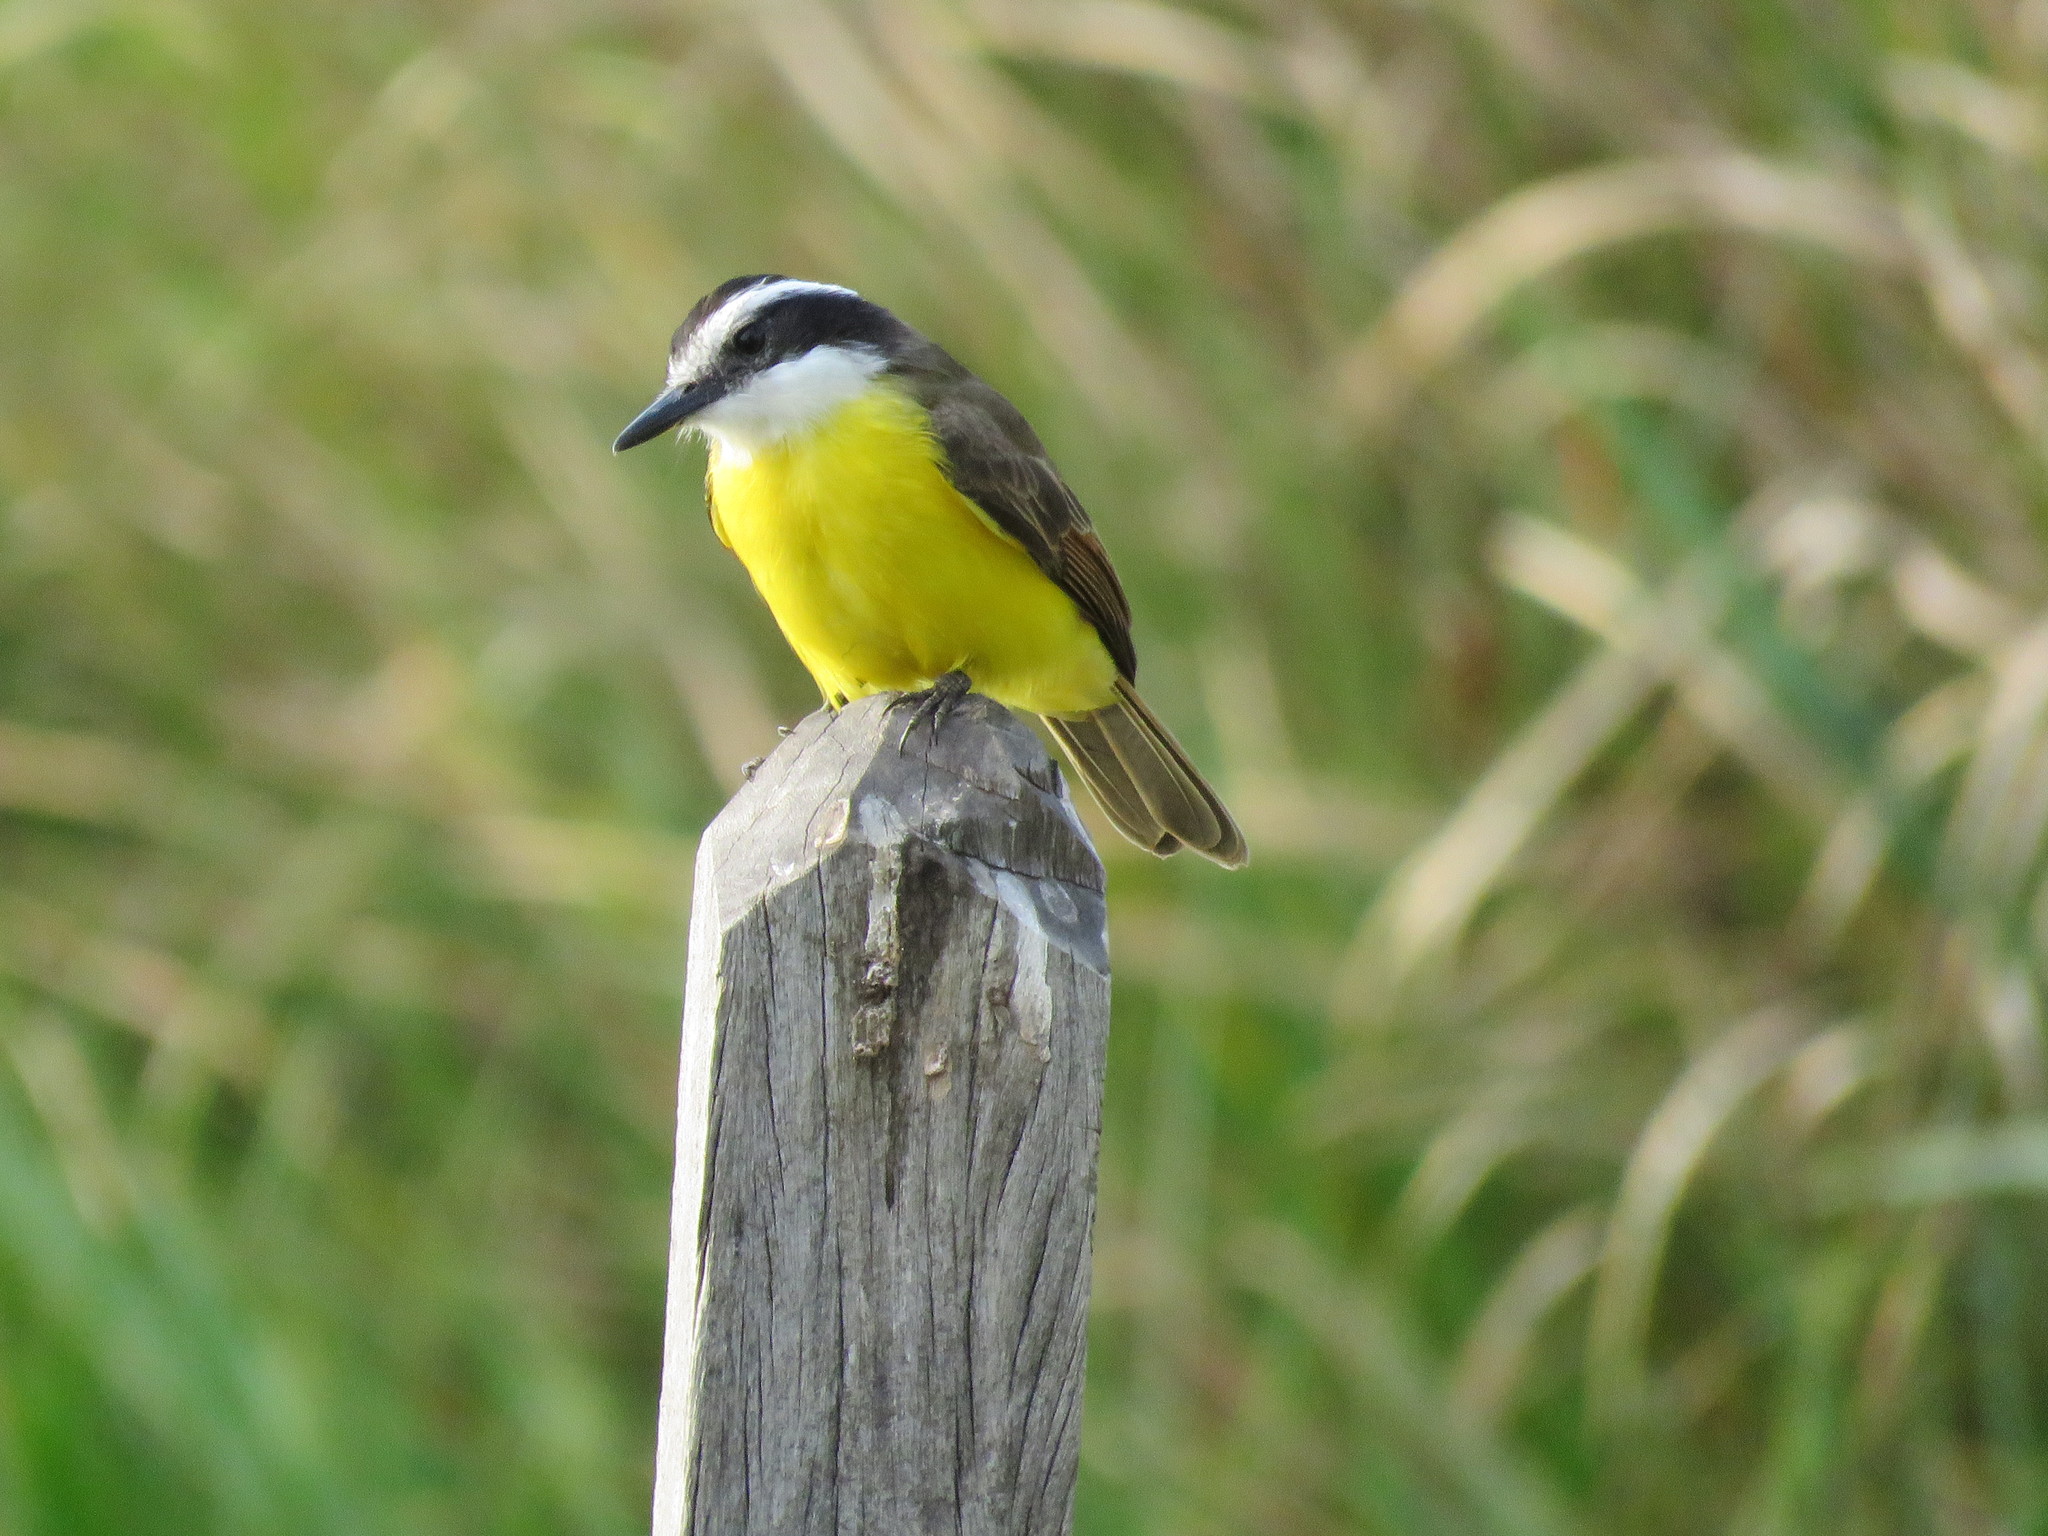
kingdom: Animalia
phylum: Chordata
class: Aves
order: Passeriformes
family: Tyrannidae
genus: Pitangus
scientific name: Pitangus lictor
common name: Lesser kiskadee
